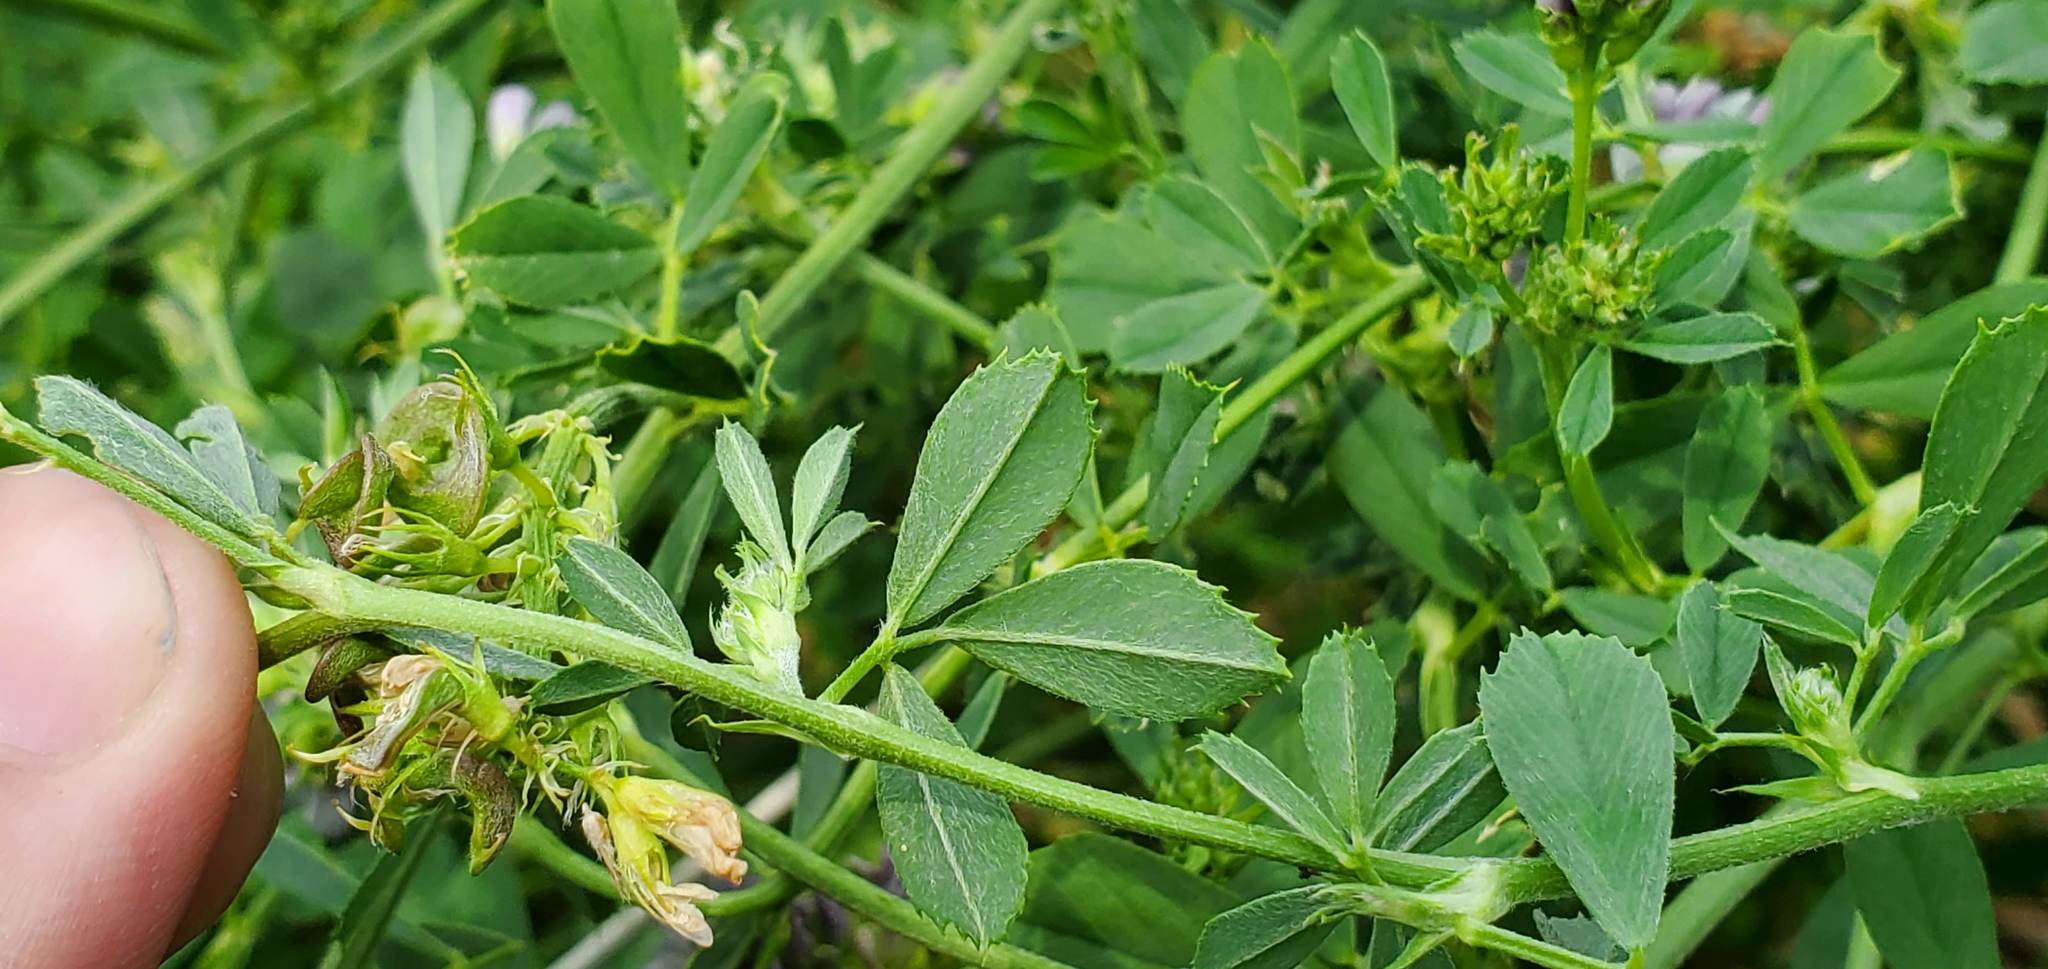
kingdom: Plantae
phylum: Tracheophyta
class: Magnoliopsida
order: Fabales
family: Fabaceae
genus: Medicago
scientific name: Medicago sativa
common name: Alfalfa
